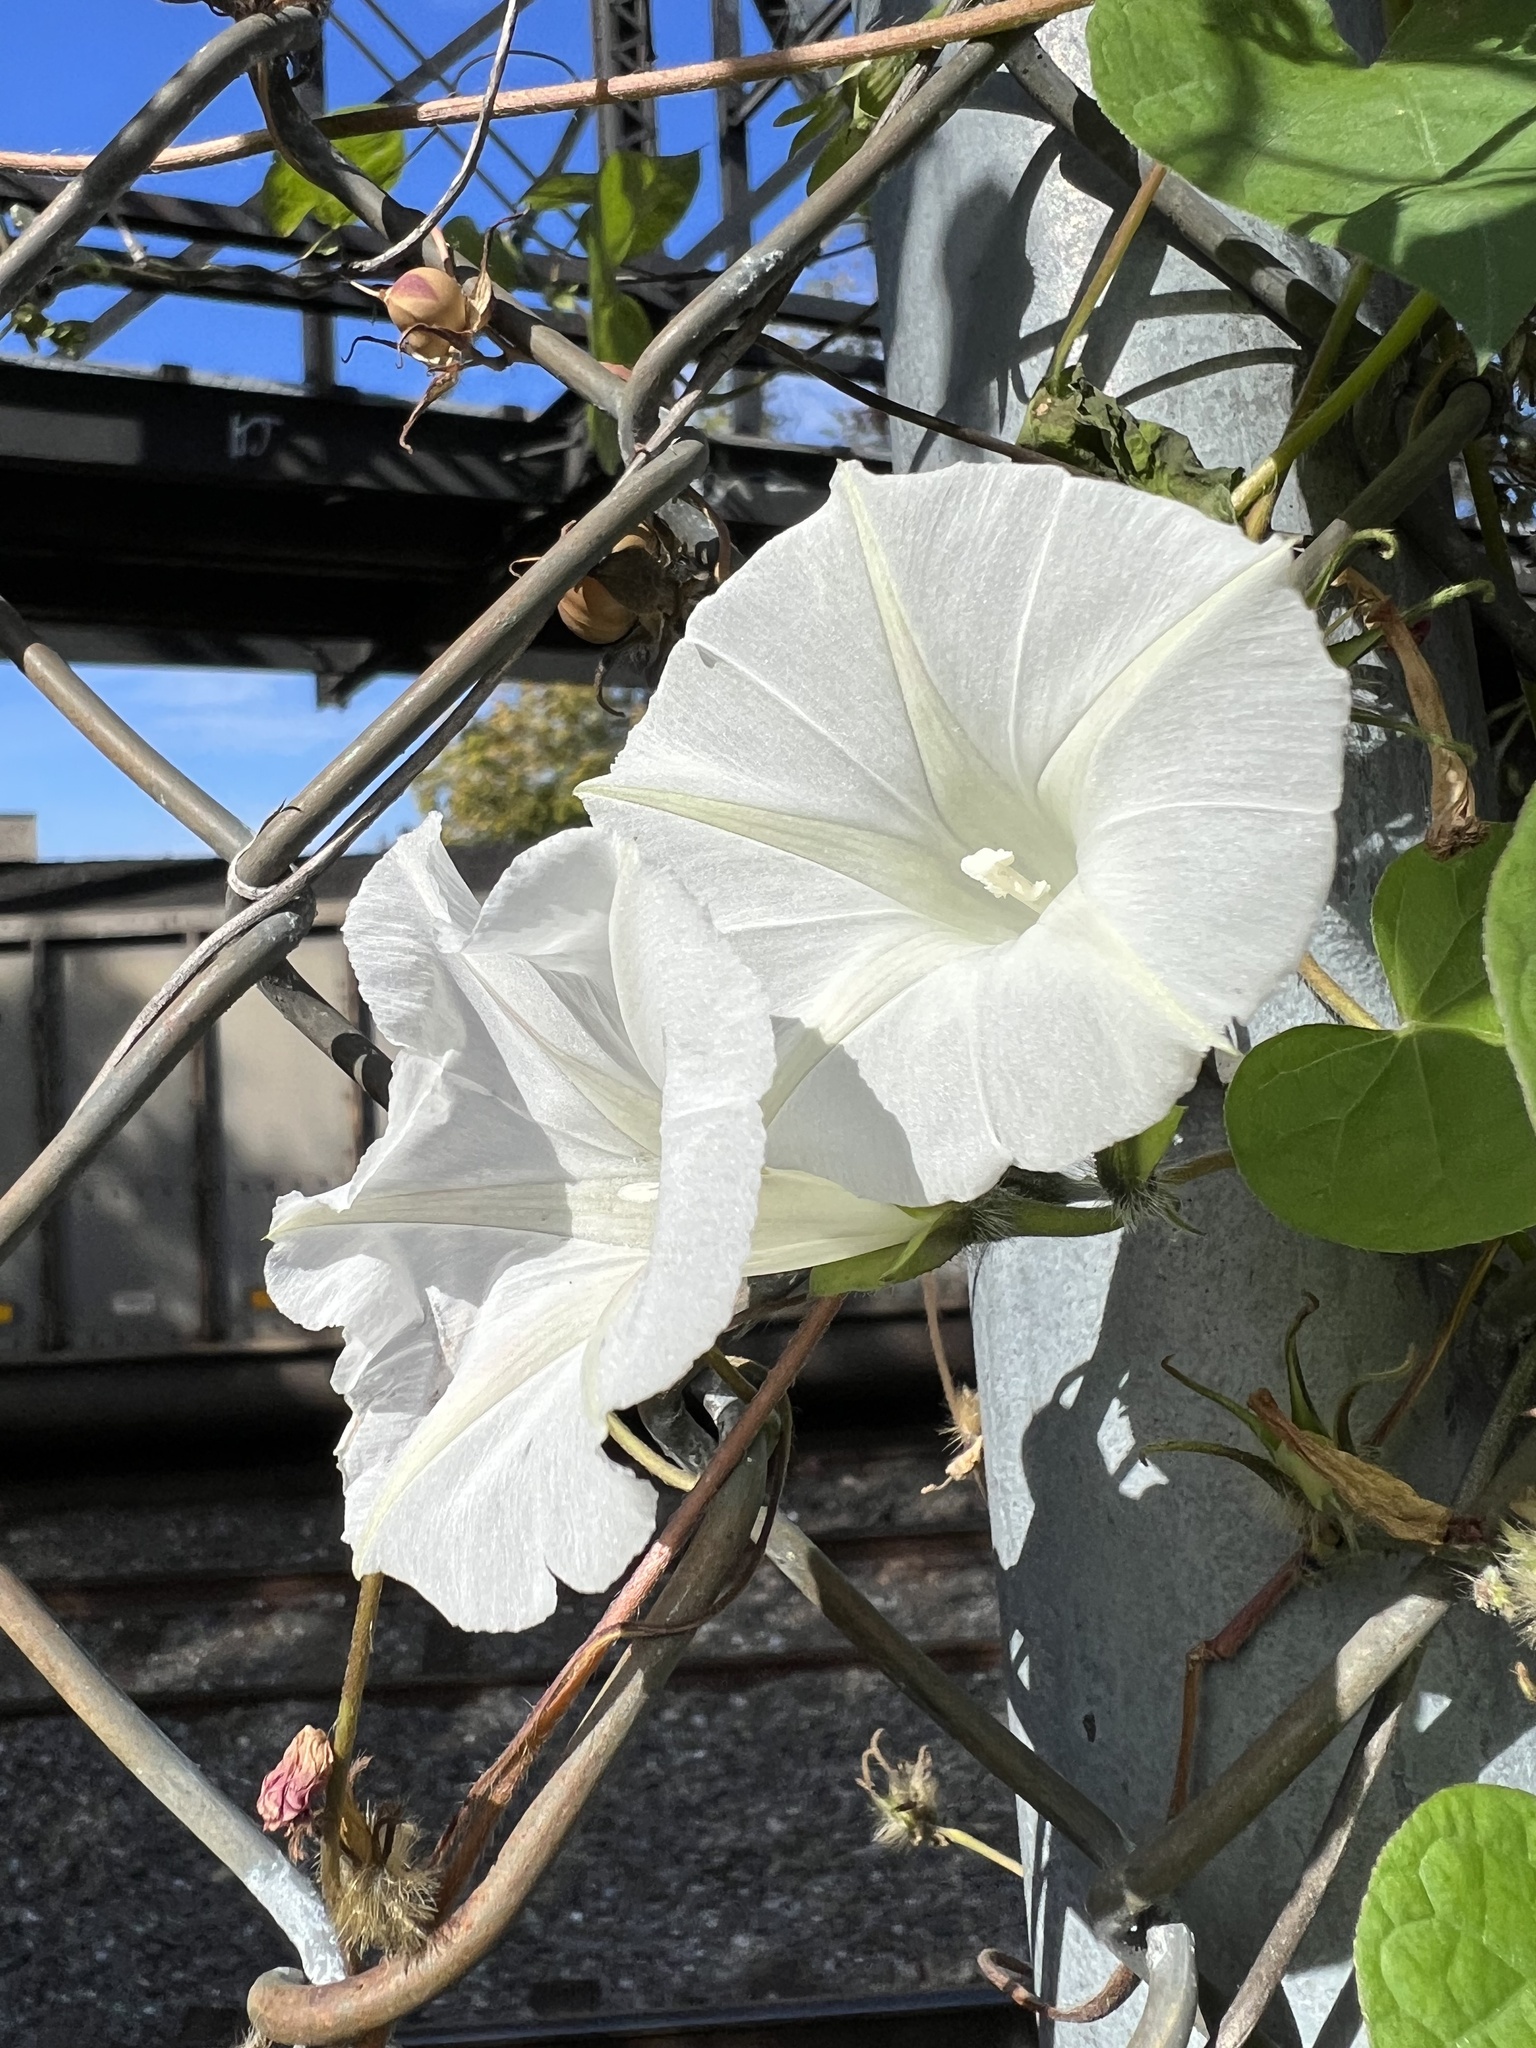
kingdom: Plantae
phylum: Tracheophyta
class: Magnoliopsida
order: Solanales
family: Convolvulaceae
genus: Ipomoea
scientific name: Ipomoea purpurea
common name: Common morning-glory
